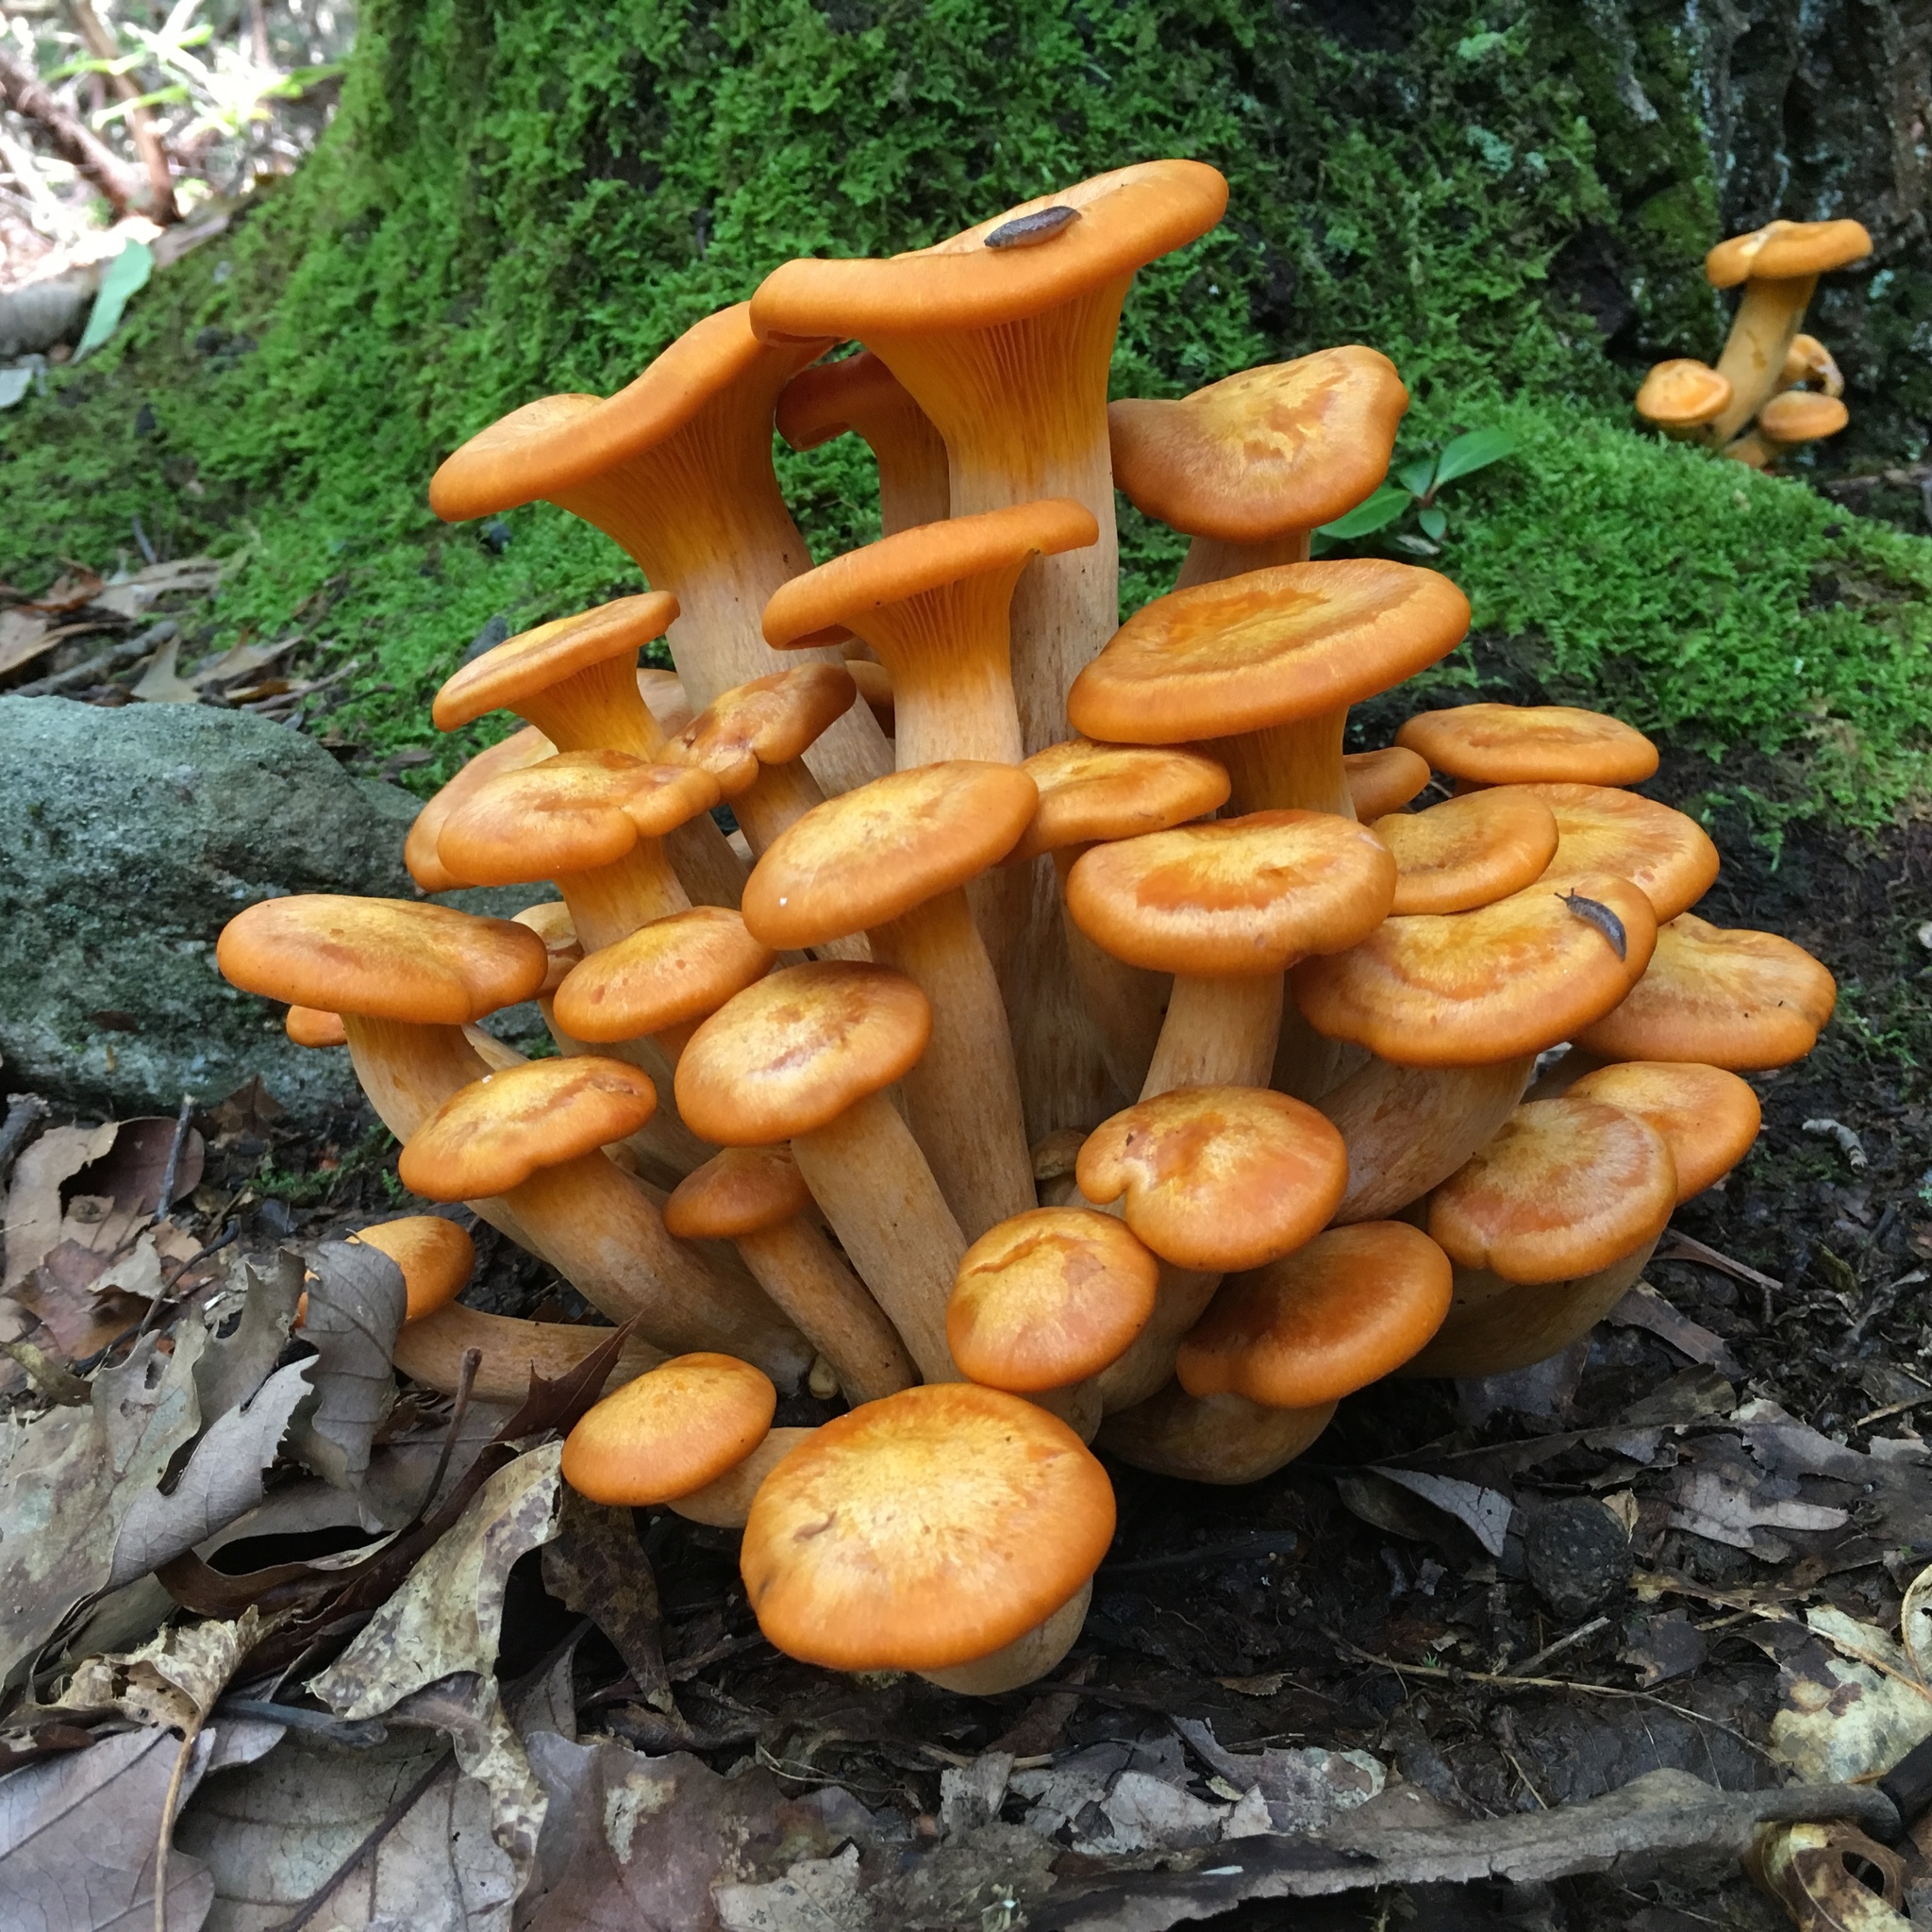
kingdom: Fungi
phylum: Basidiomycota
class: Agaricomycetes
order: Agaricales
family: Omphalotaceae
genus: Omphalotus
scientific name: Omphalotus illudens
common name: Jack o lantern
